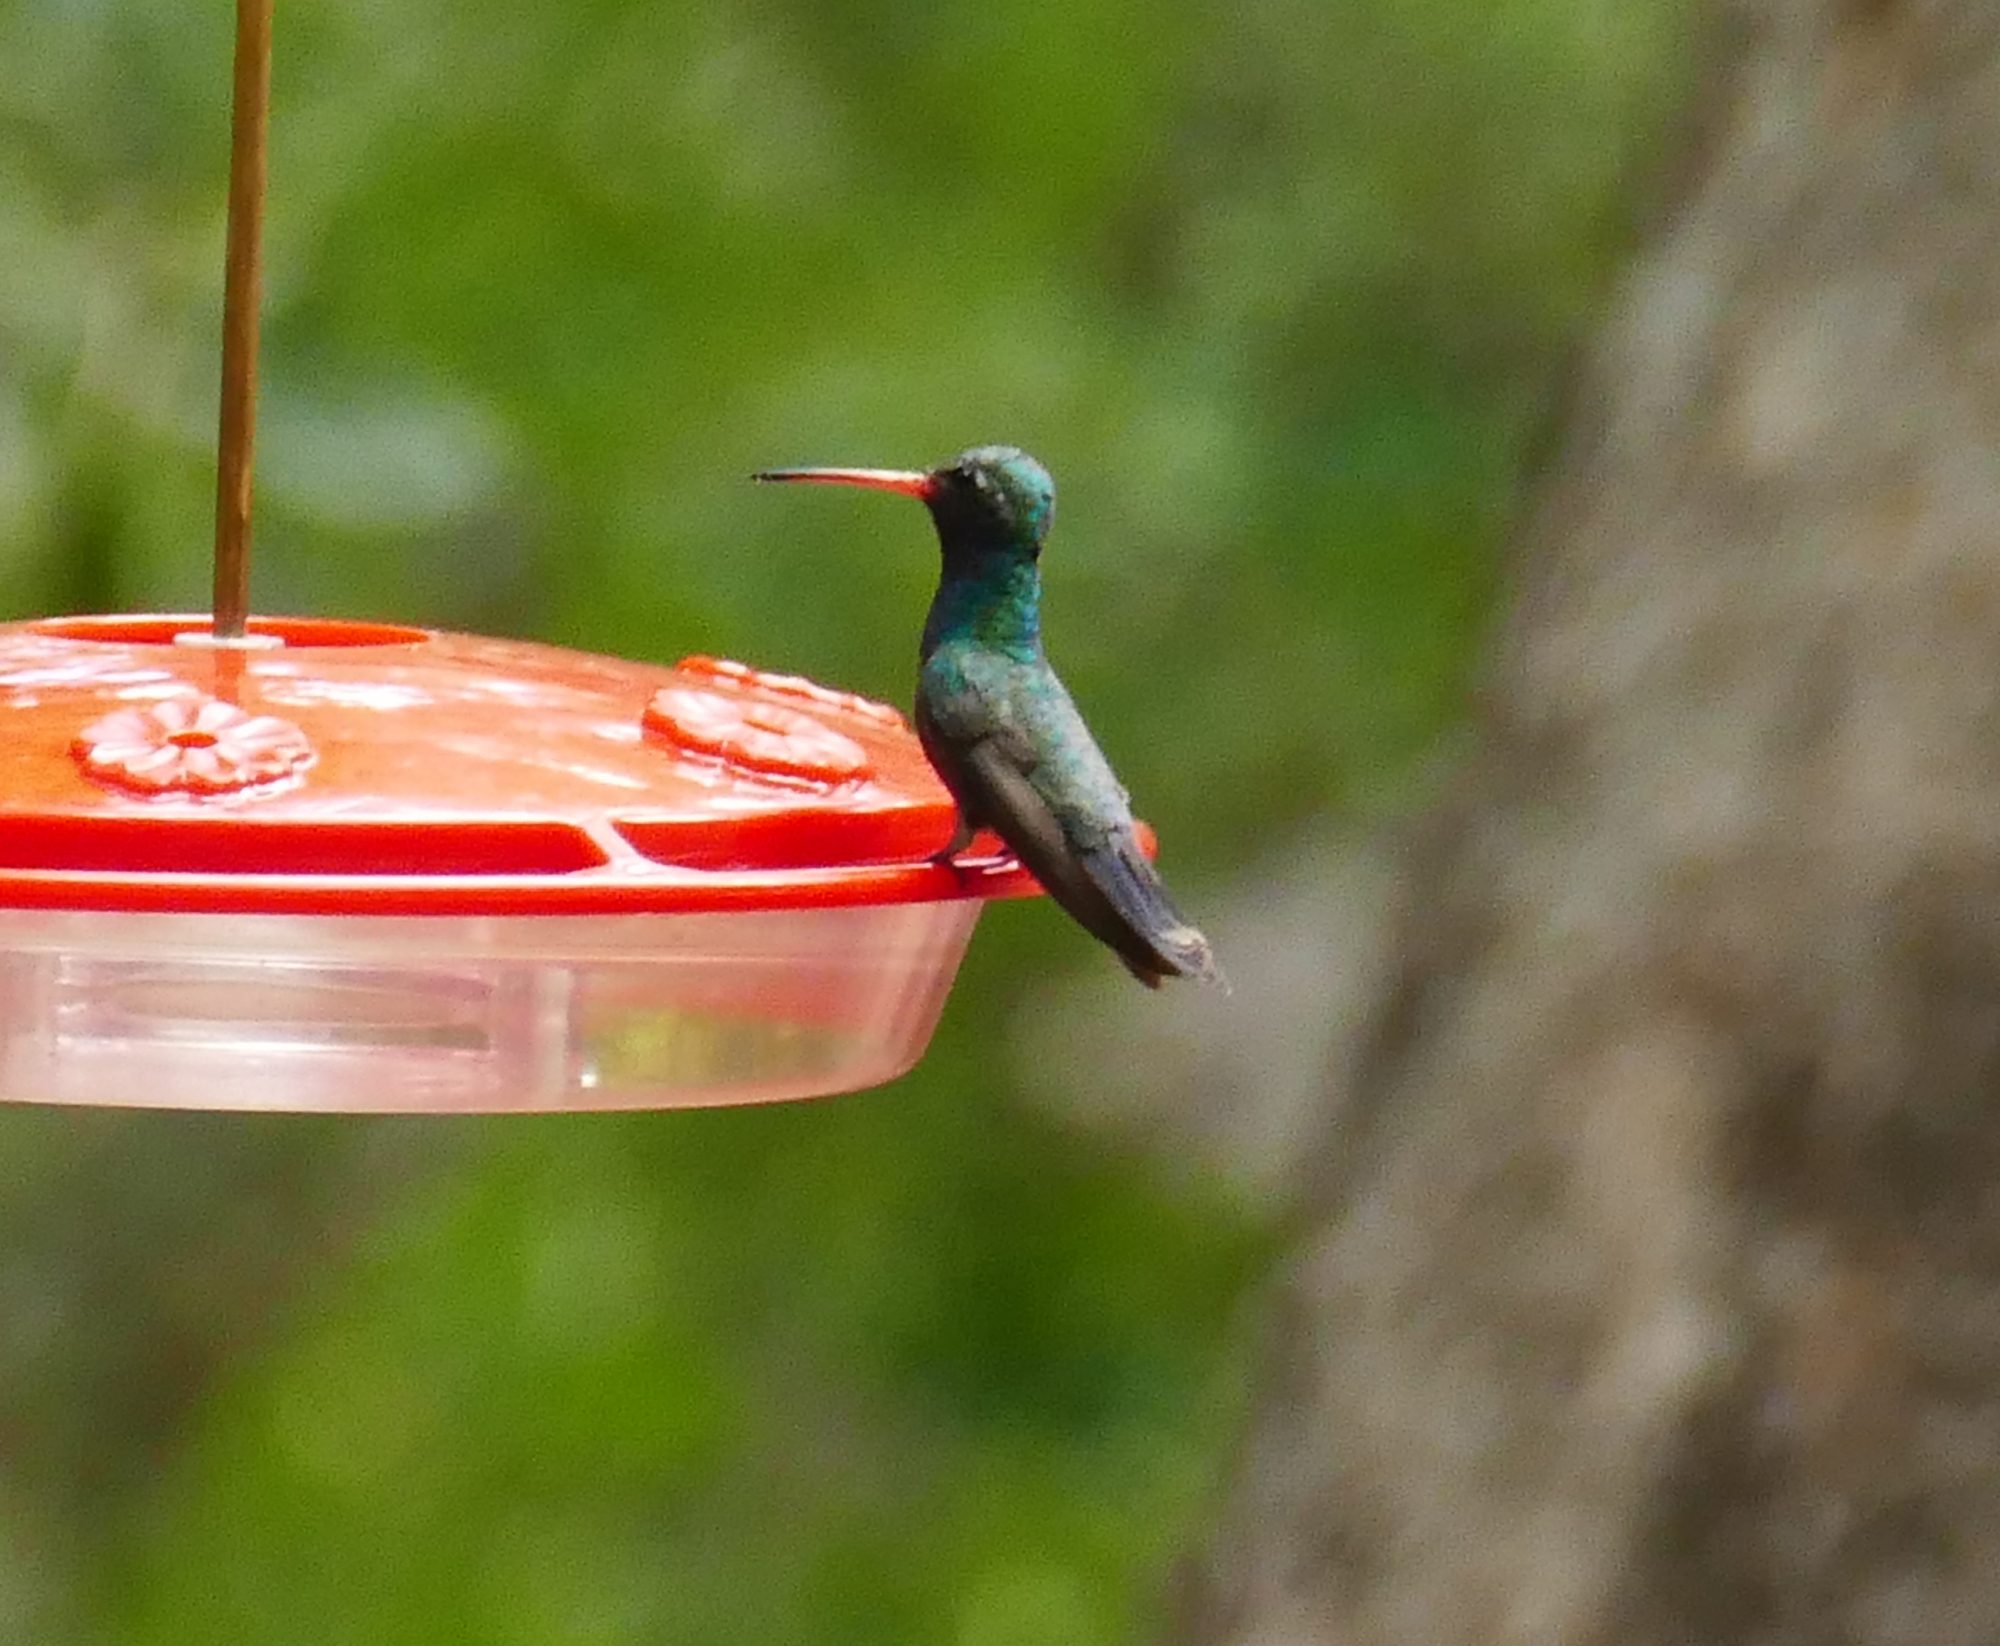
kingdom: Animalia
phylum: Chordata
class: Aves
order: Apodiformes
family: Trochilidae
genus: Cynanthus
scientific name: Cynanthus latirostris
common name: Broad-billed hummingbird
